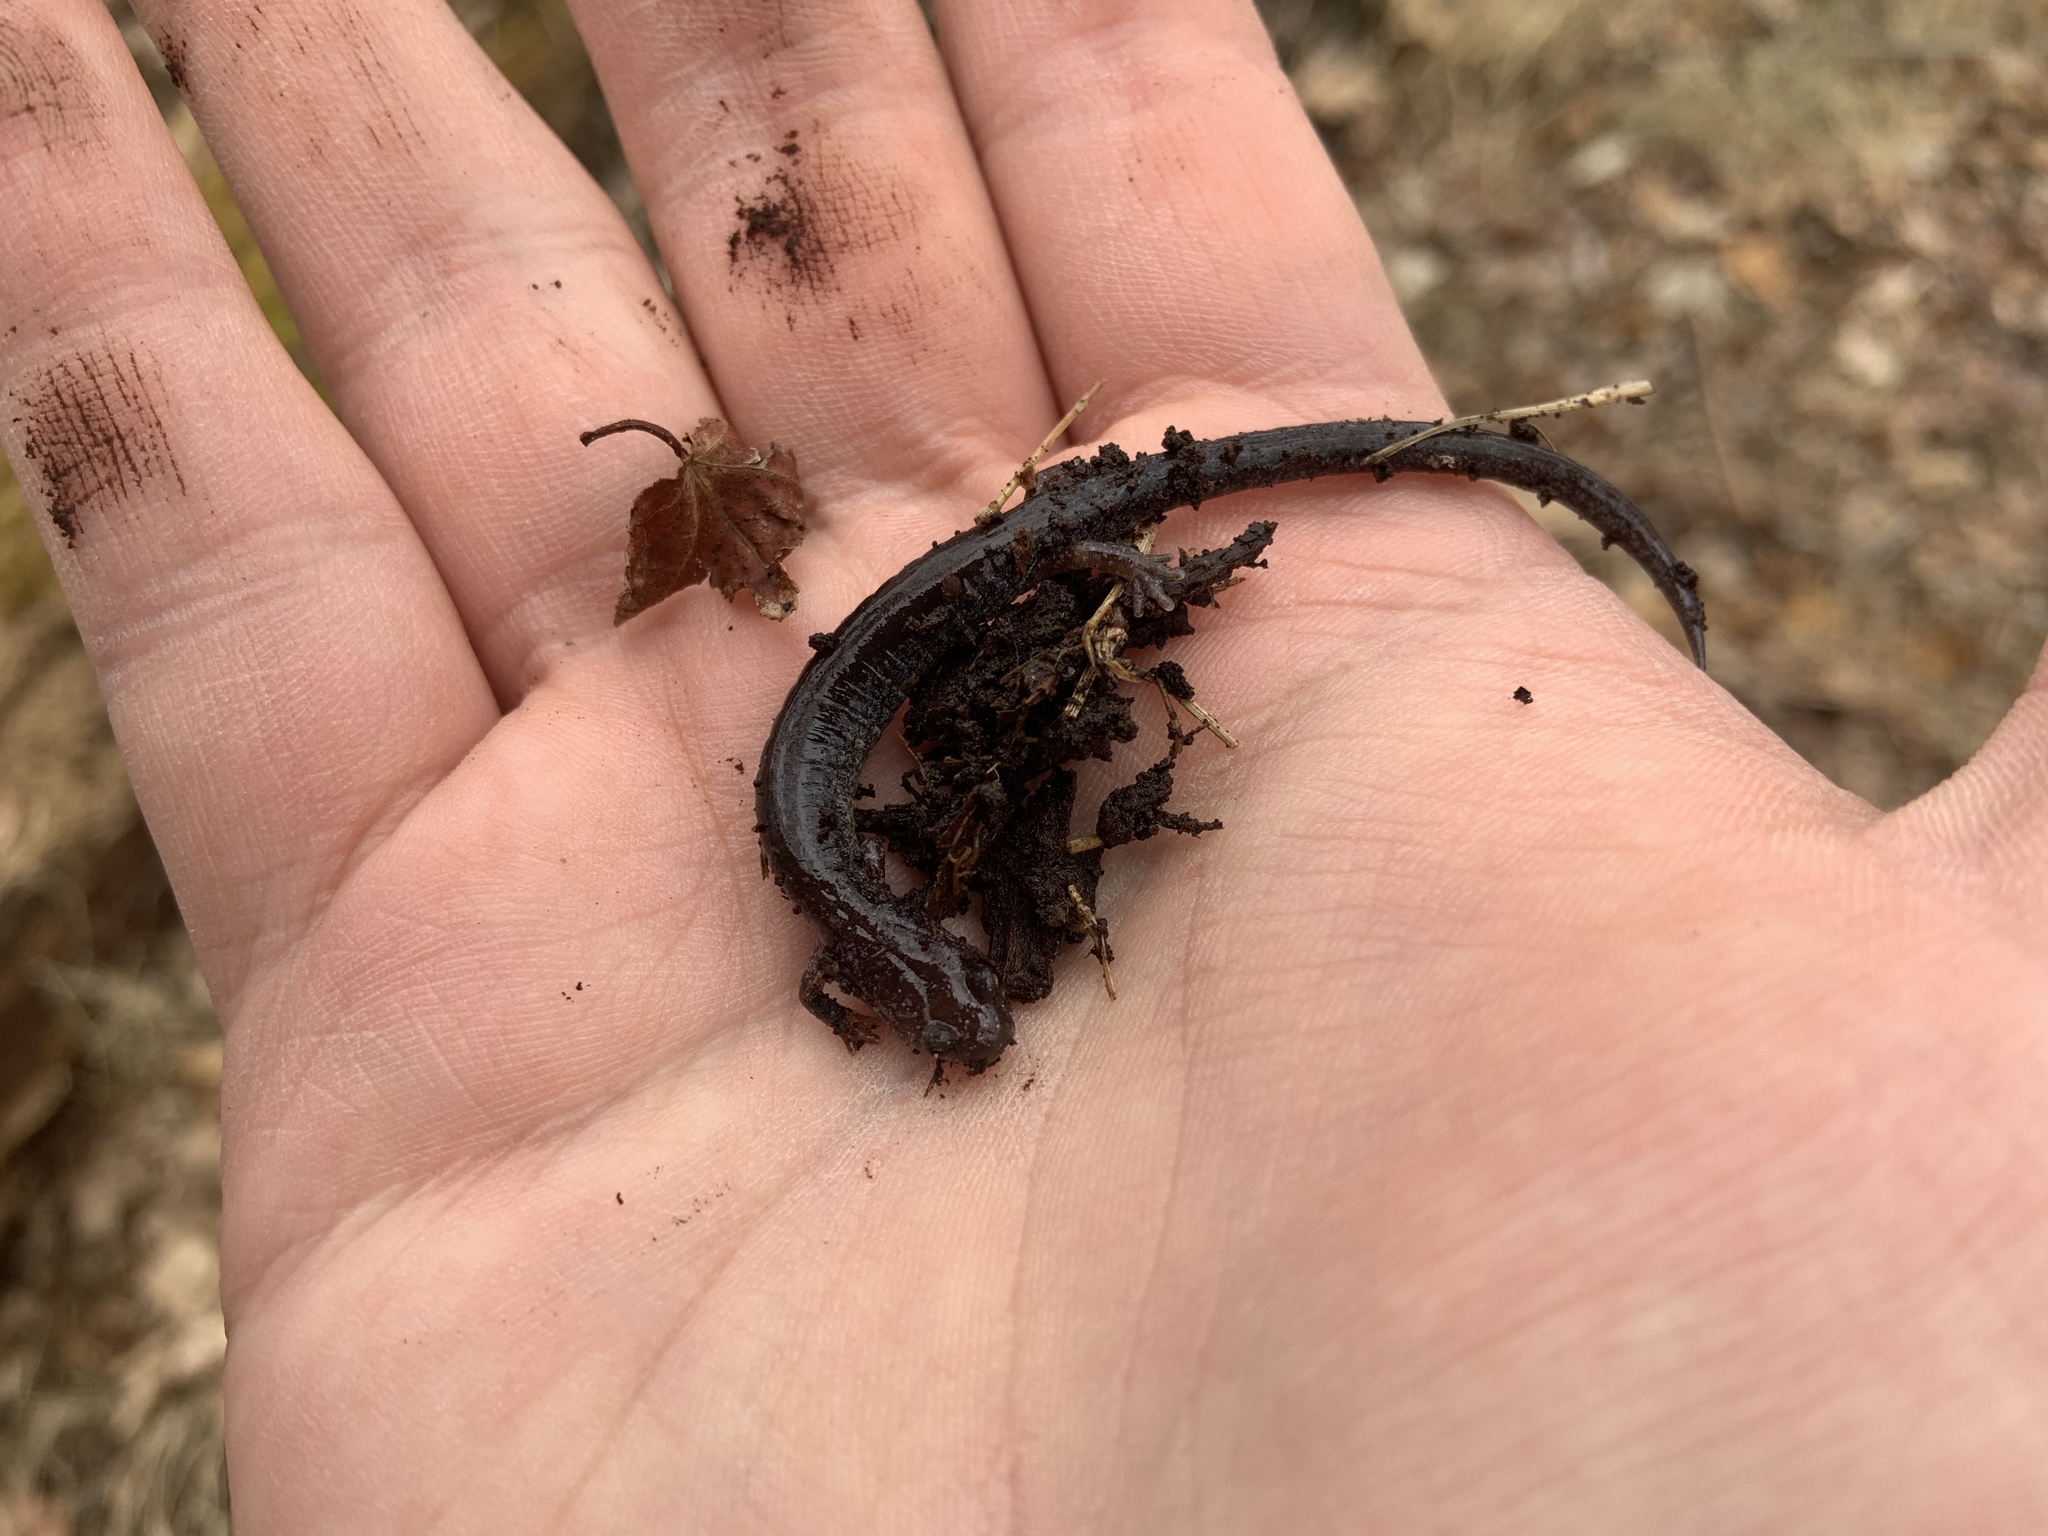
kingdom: Animalia
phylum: Chordata
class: Amphibia
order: Caudata
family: Plethodontidae
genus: Plethodon
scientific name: Plethodon cinereus
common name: Redback salamander
